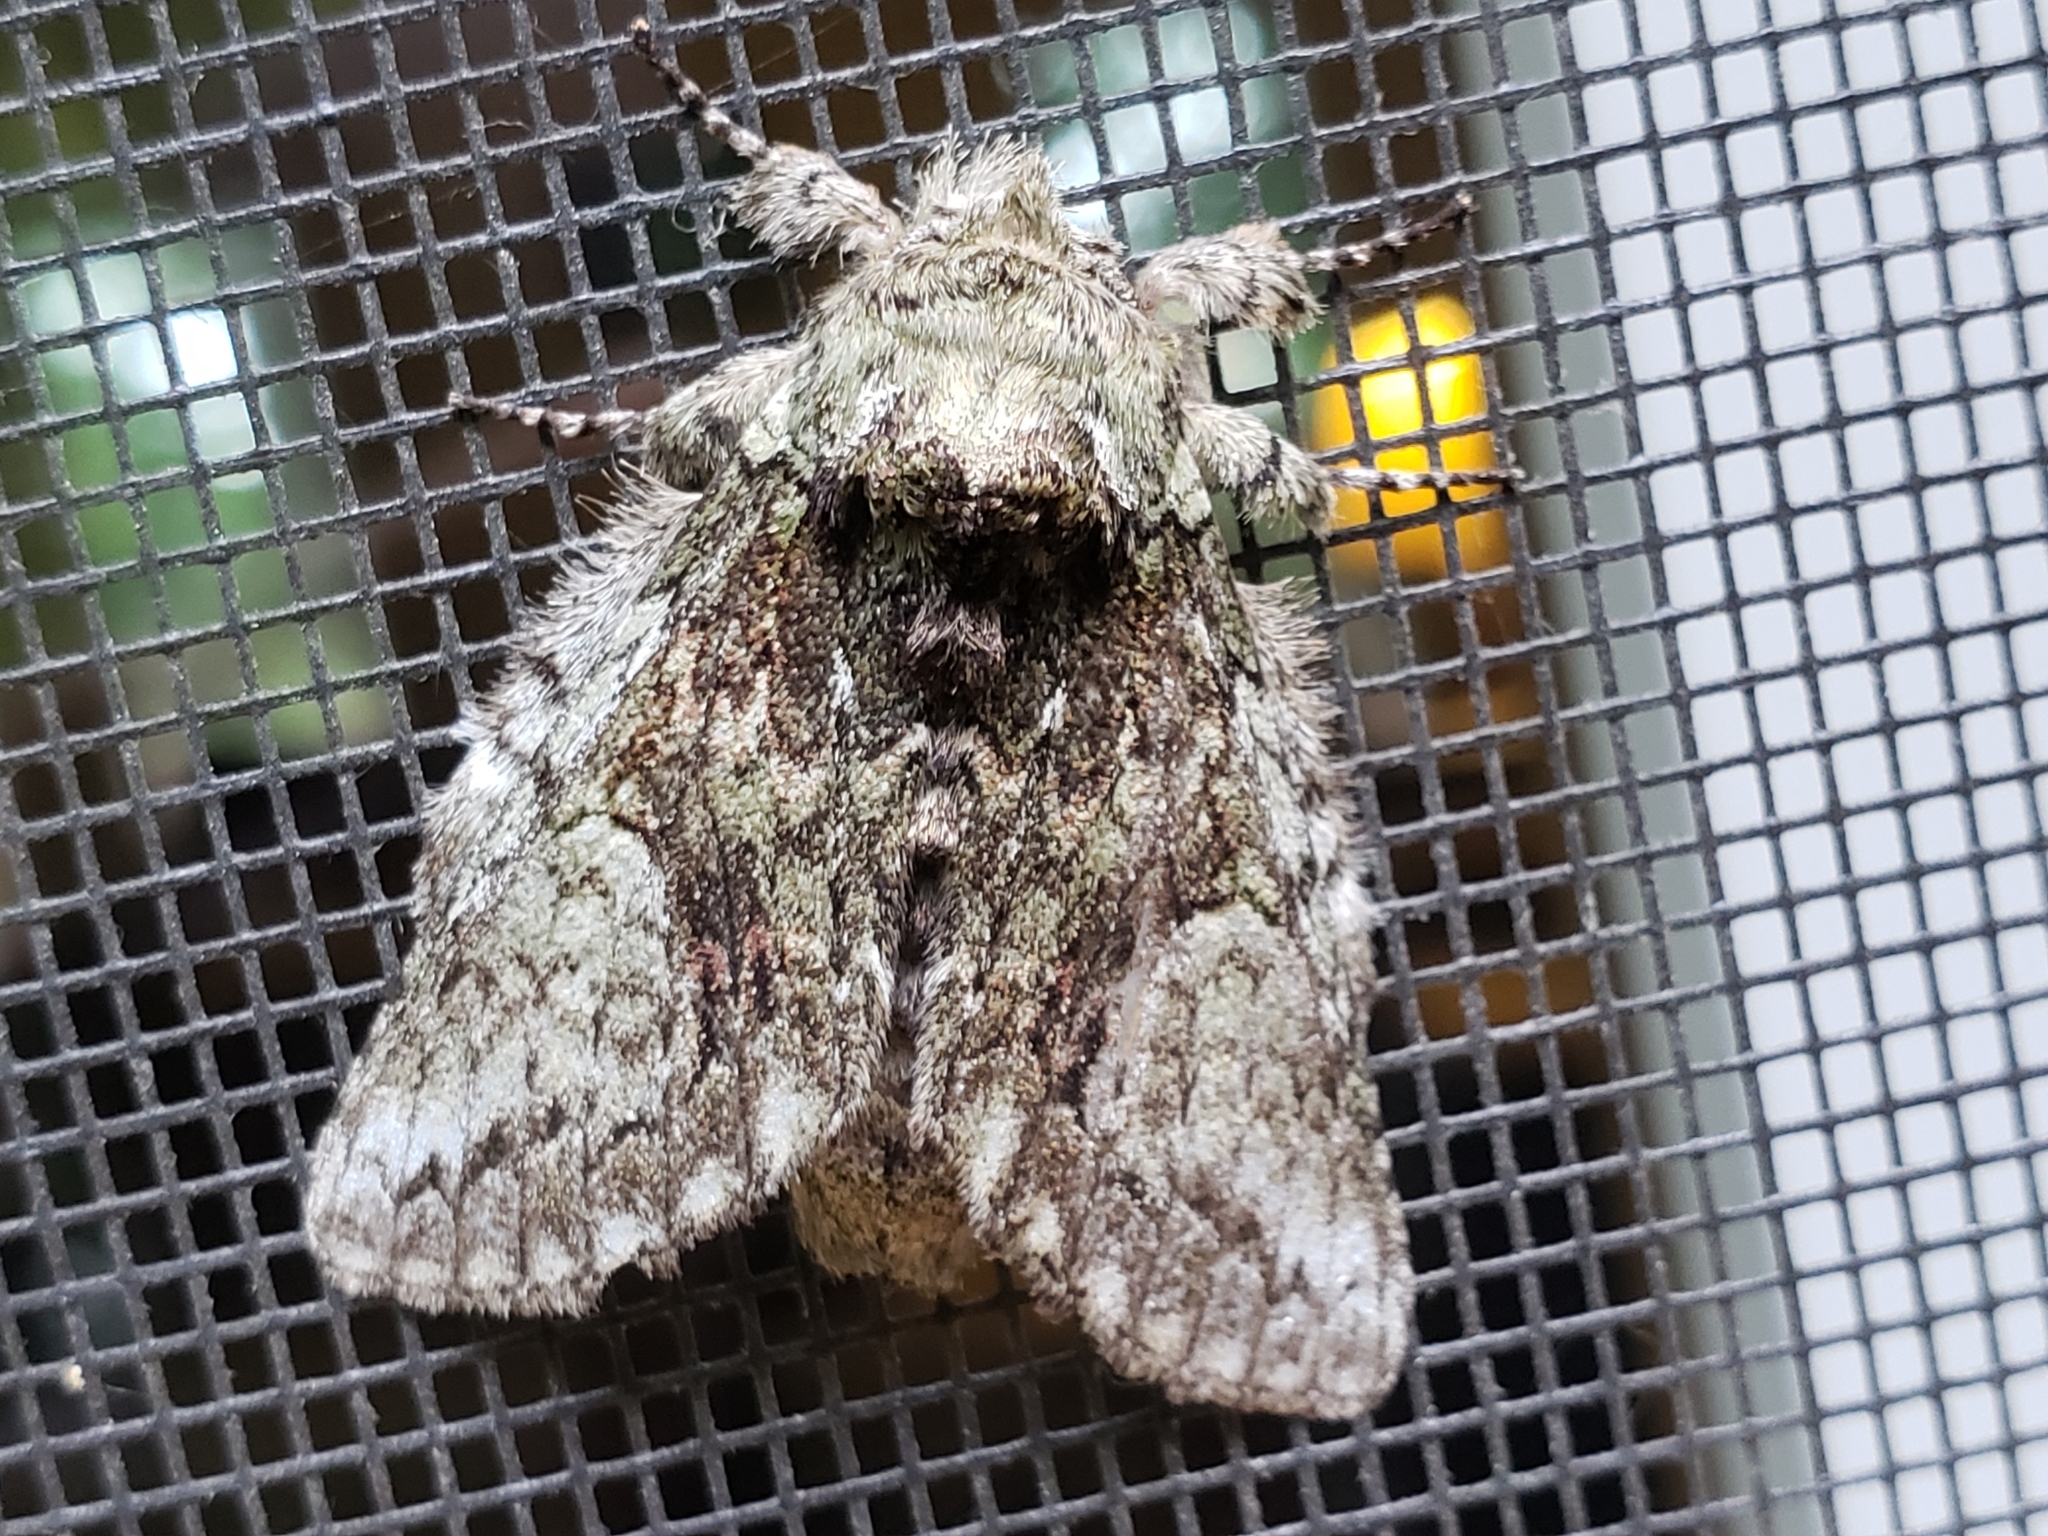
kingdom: Animalia
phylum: Arthropoda
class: Insecta
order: Lepidoptera
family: Notodontidae
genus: Heterocampa
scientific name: Heterocampa
